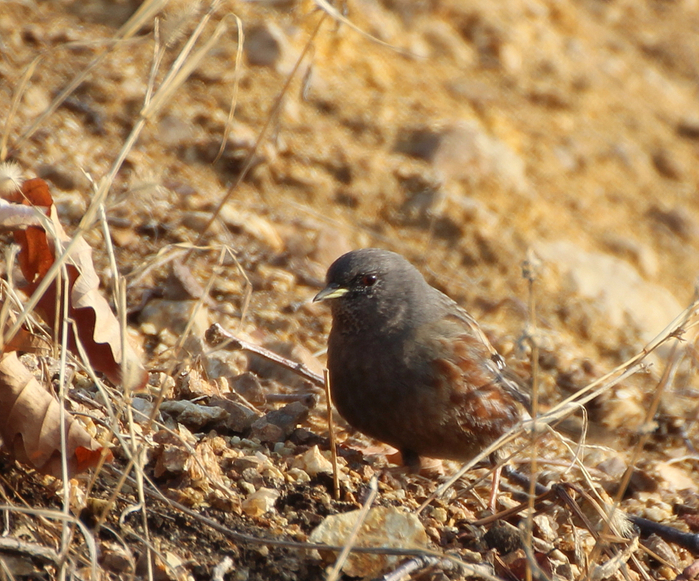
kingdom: Animalia
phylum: Chordata
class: Aves
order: Passeriformes
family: Prunellidae
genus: Prunella
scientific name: Prunella collaris
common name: Alpine accentor
